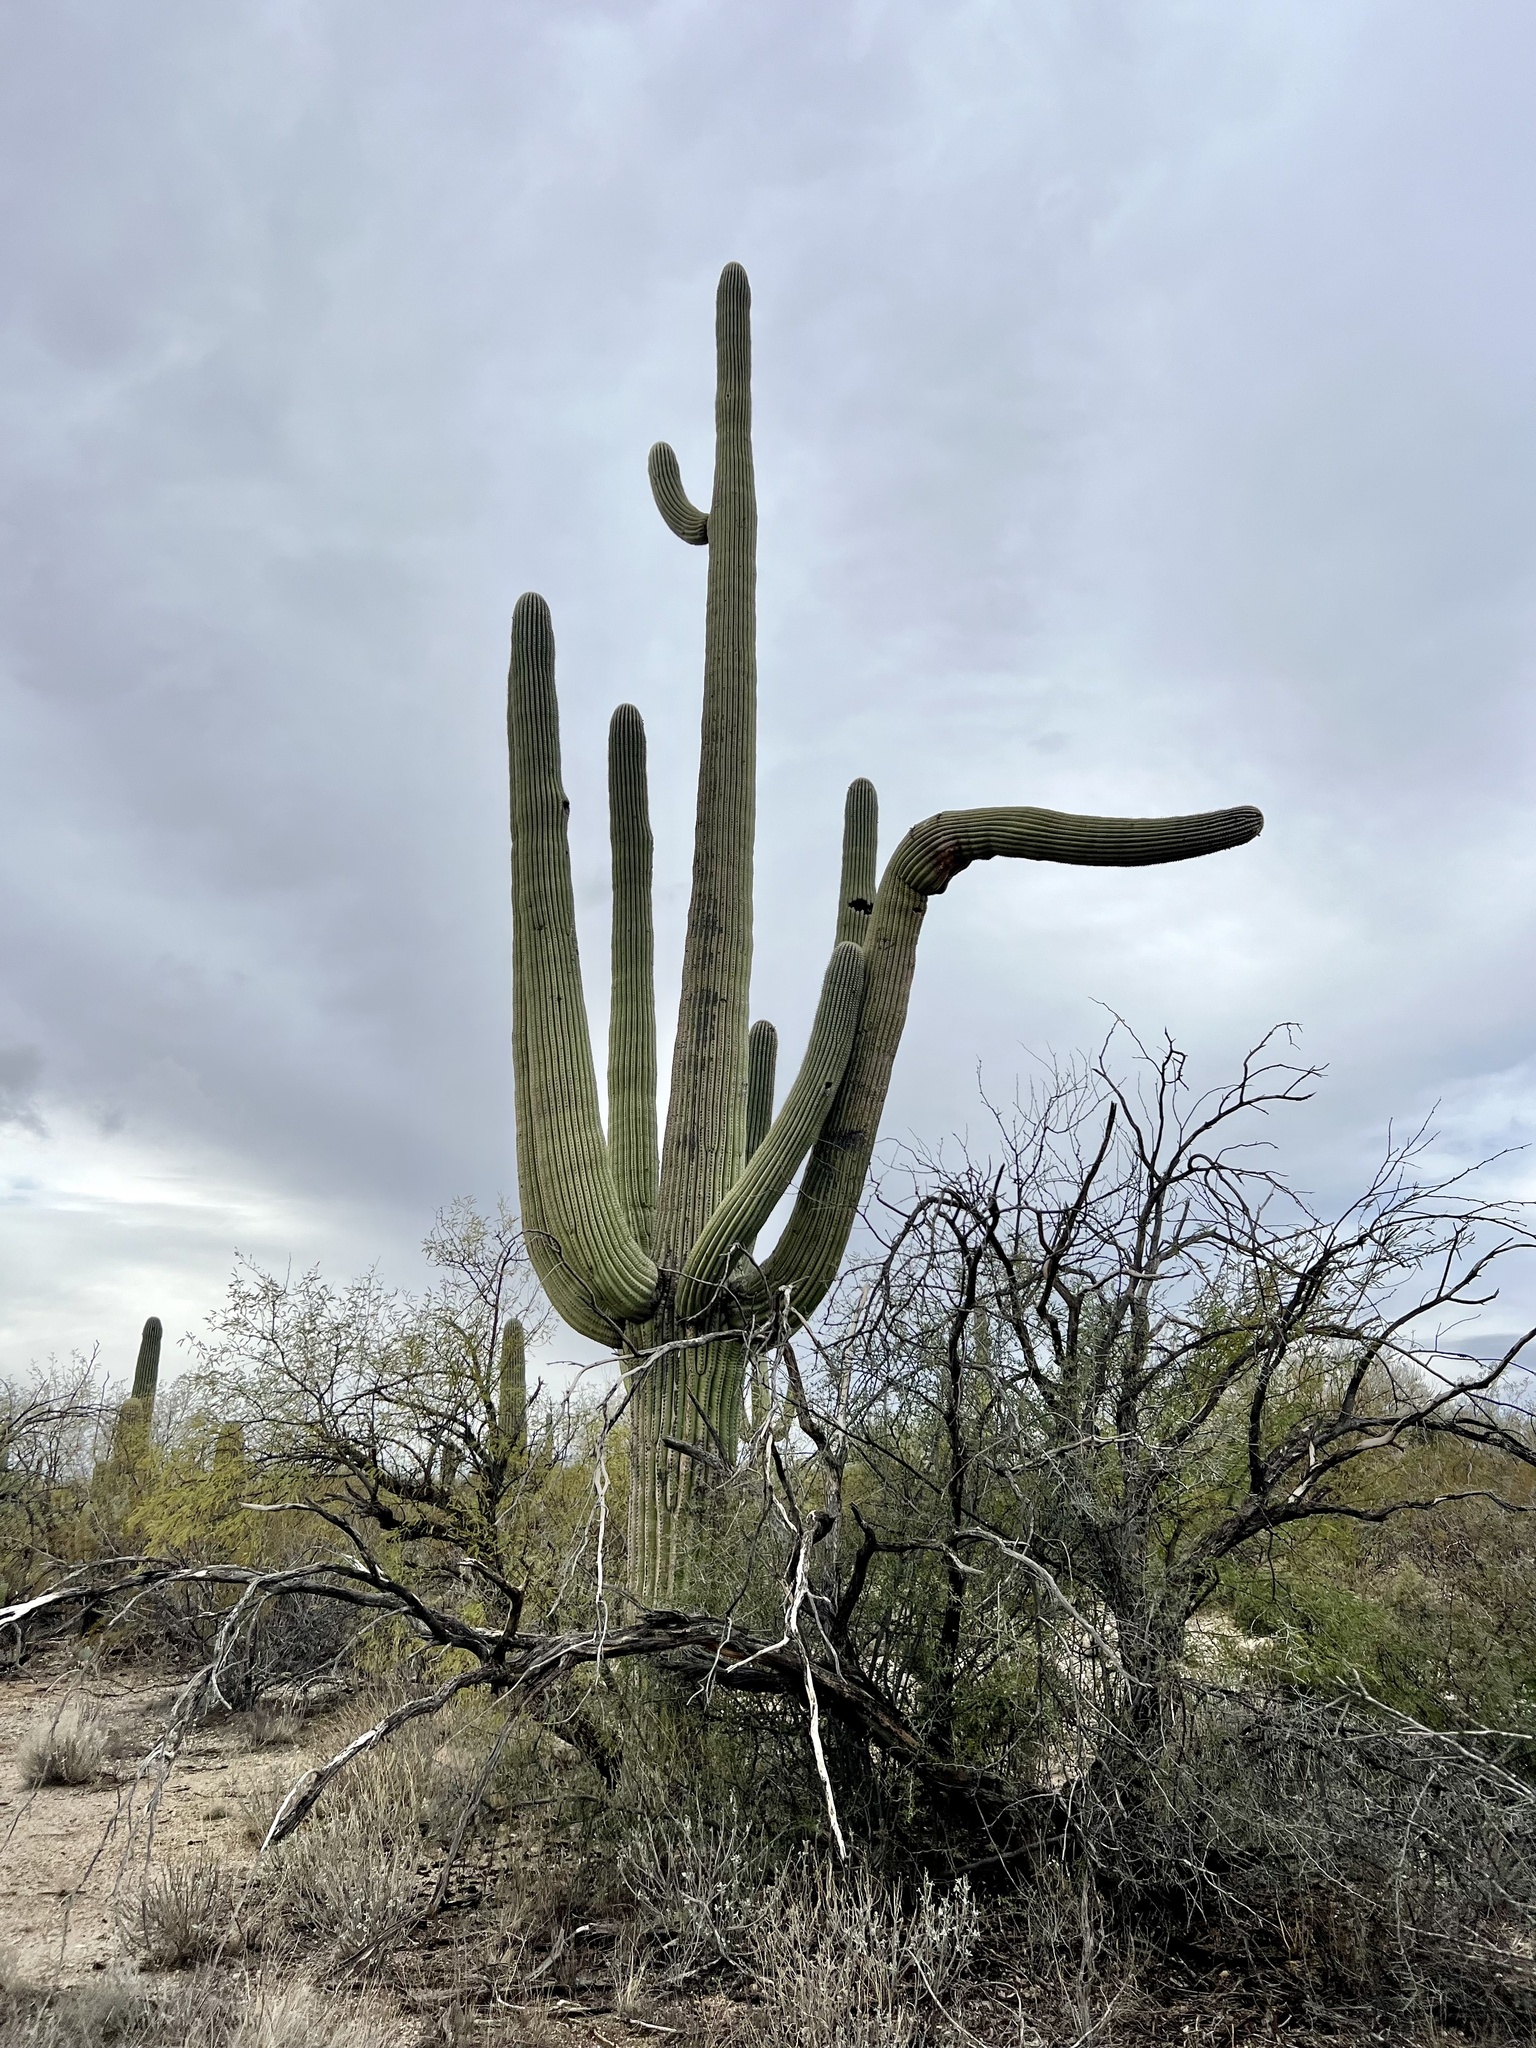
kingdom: Plantae
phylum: Tracheophyta
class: Magnoliopsida
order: Caryophyllales
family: Cactaceae
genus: Carnegiea
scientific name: Carnegiea gigantea
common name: Saguaro
